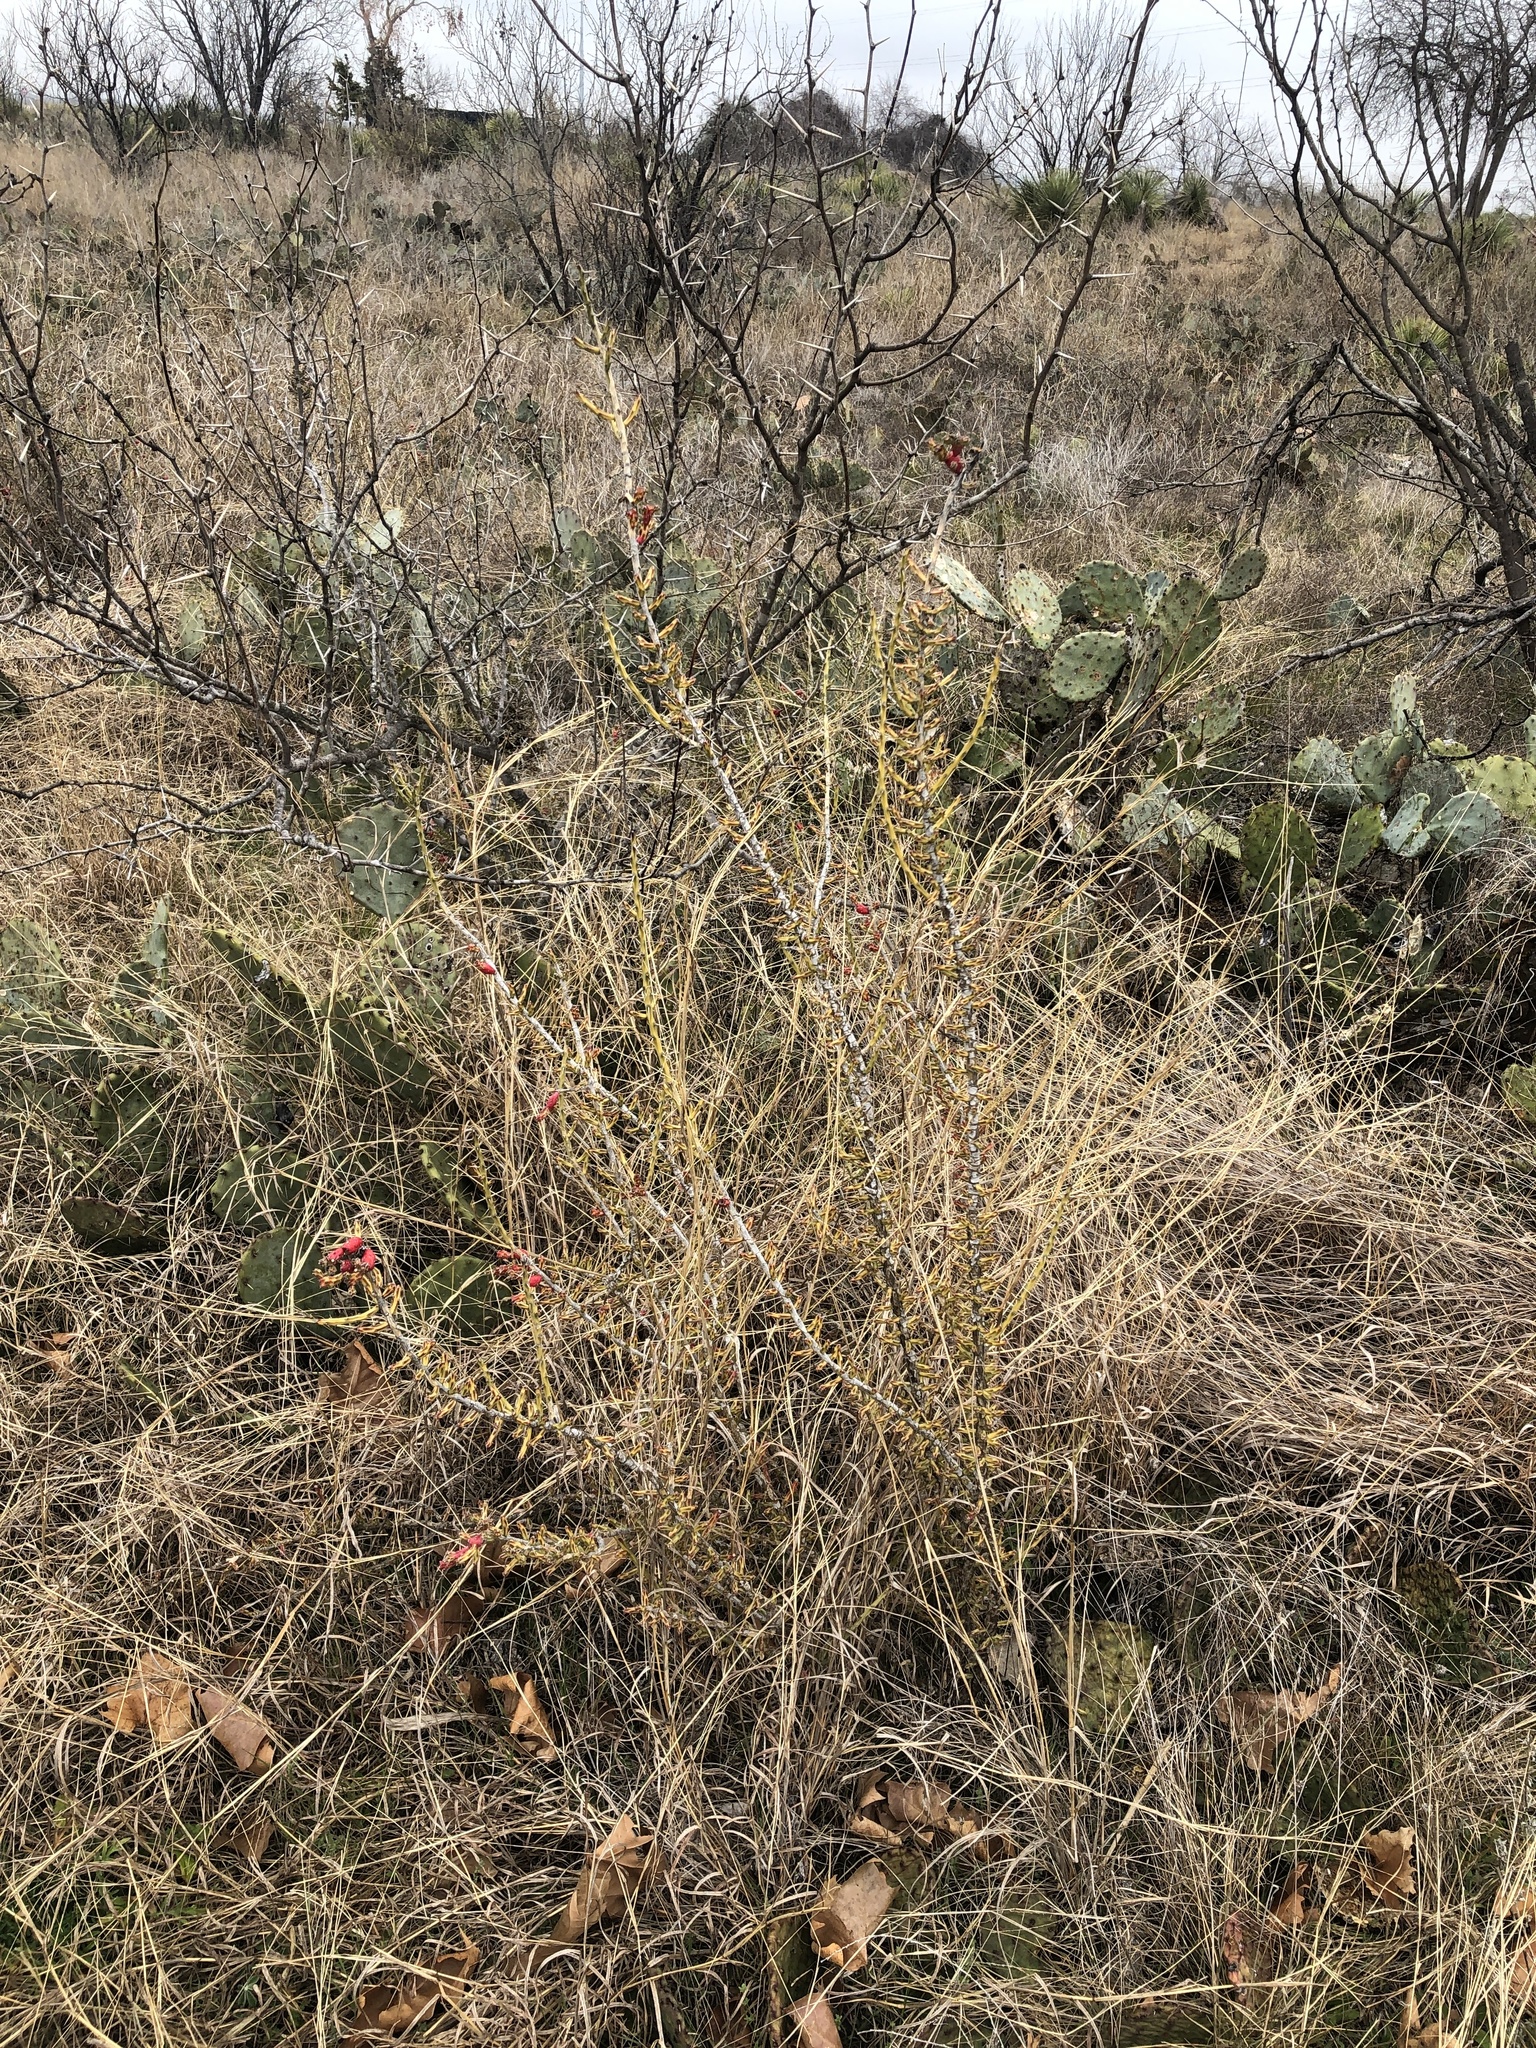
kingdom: Plantae
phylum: Tracheophyta
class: Magnoliopsida
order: Caryophyllales
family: Cactaceae
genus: Cylindropuntia
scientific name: Cylindropuntia leptocaulis
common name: Christmas cactus
